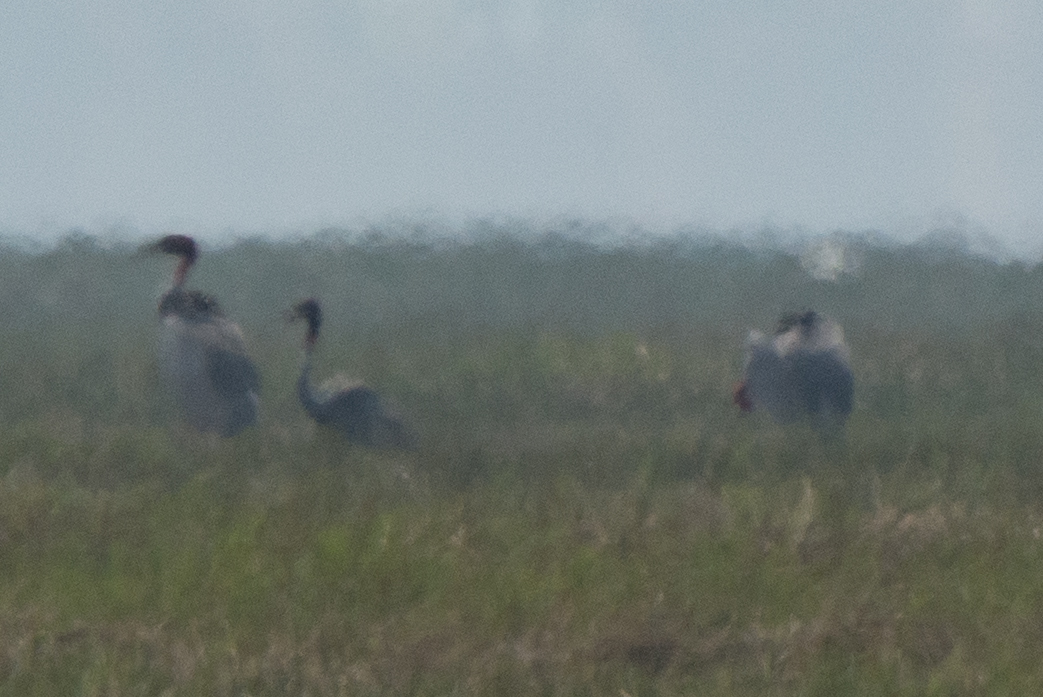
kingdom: Animalia
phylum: Chordata
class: Aves
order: Gruiformes
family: Gruidae
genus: Grus
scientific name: Grus antigone
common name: Sarus crane
